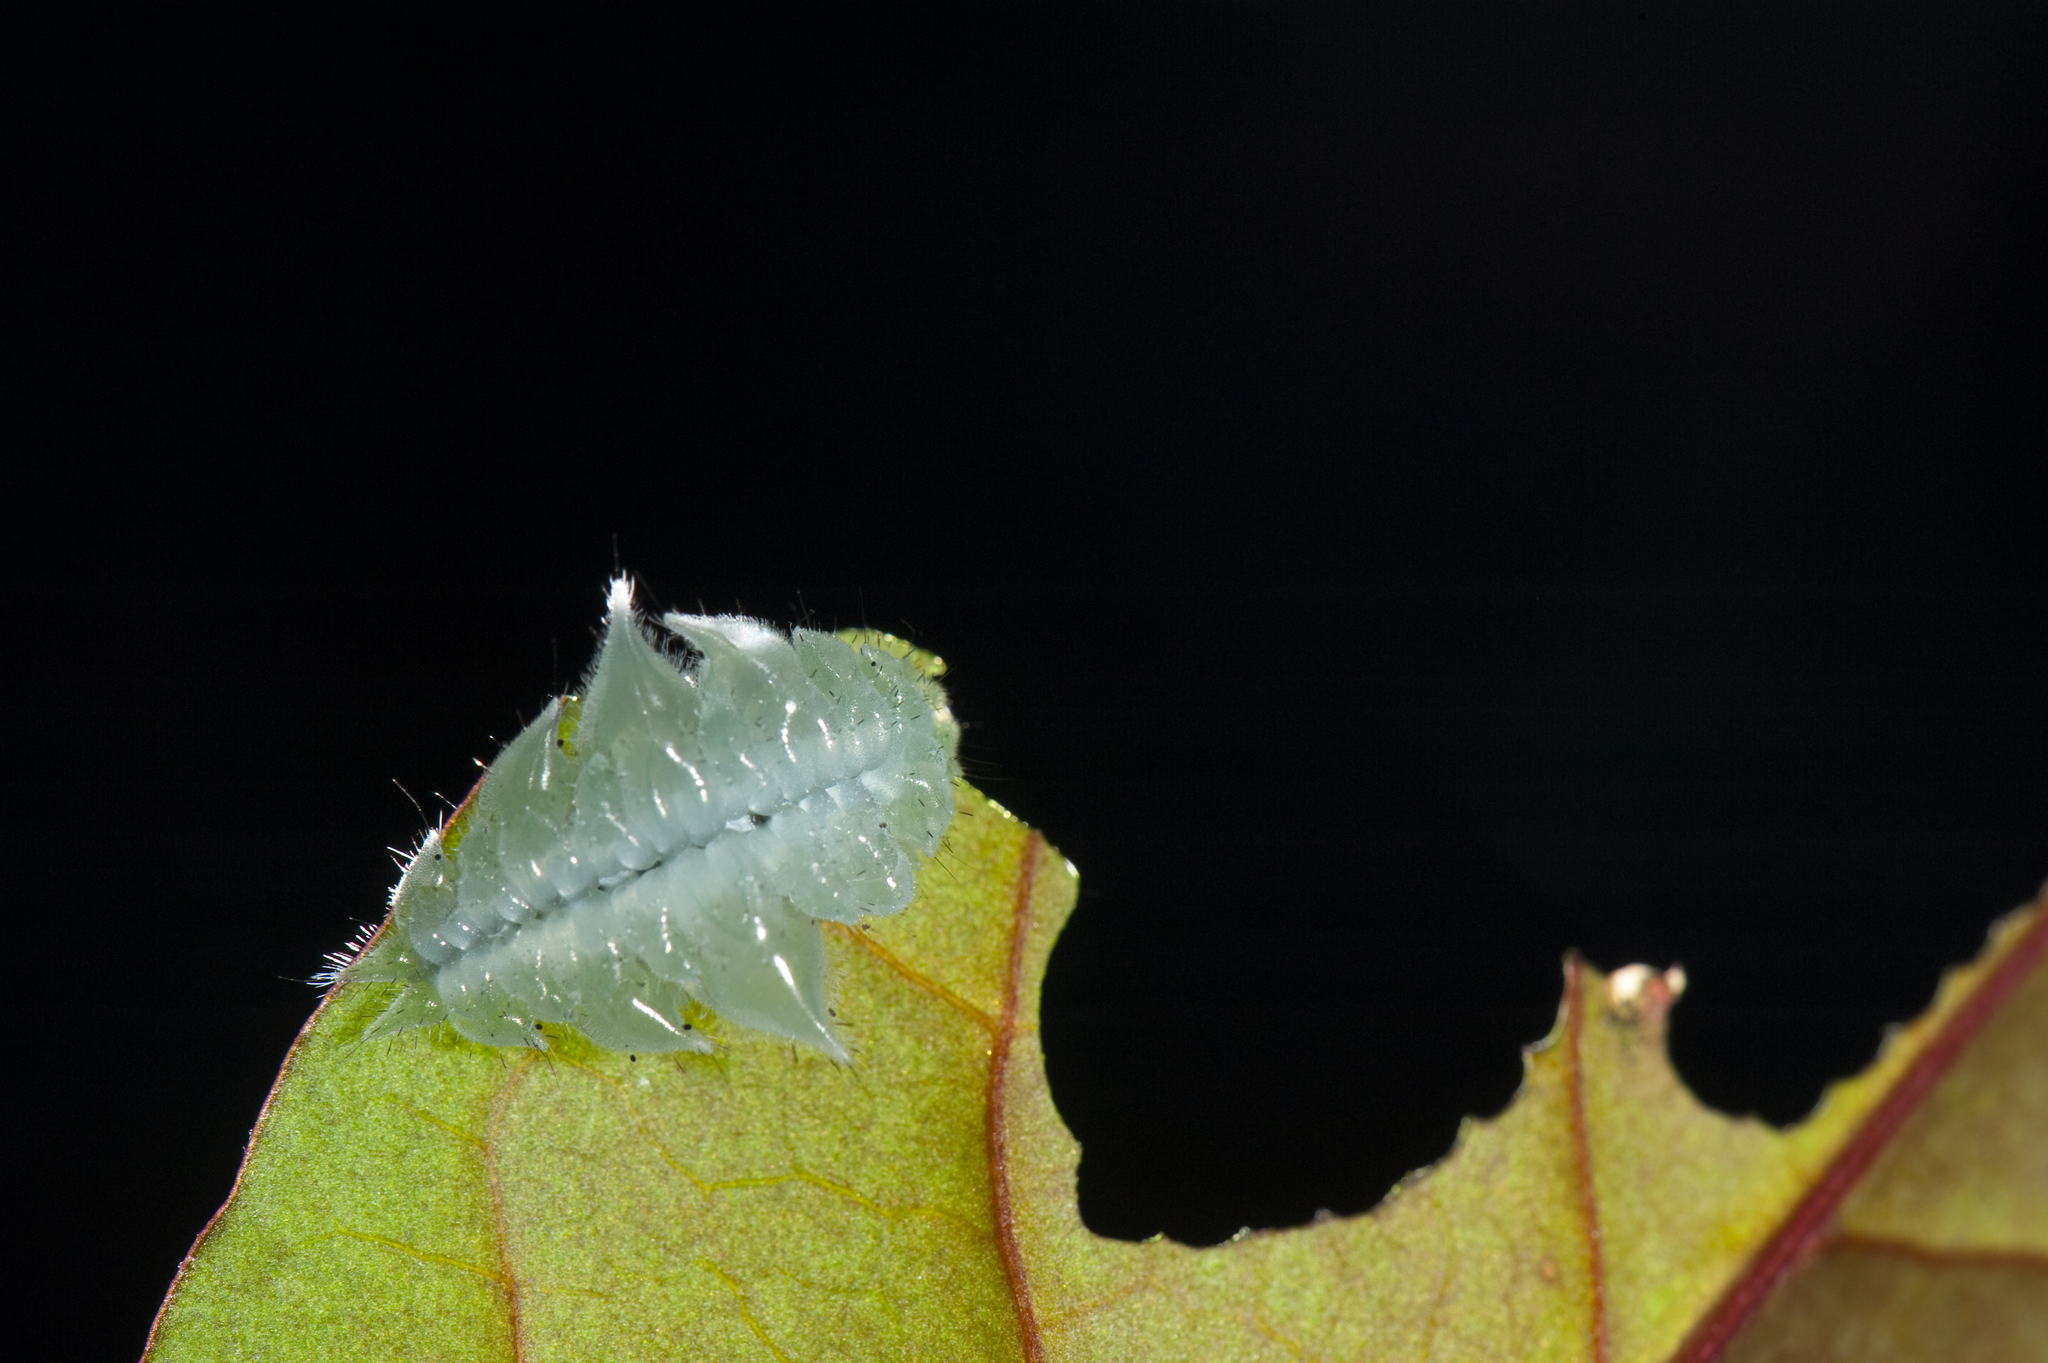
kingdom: Animalia
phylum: Arthropoda
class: Insecta
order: Lepidoptera
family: Limacodidae
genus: Phrixolepia
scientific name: Phrixolepia inouei
